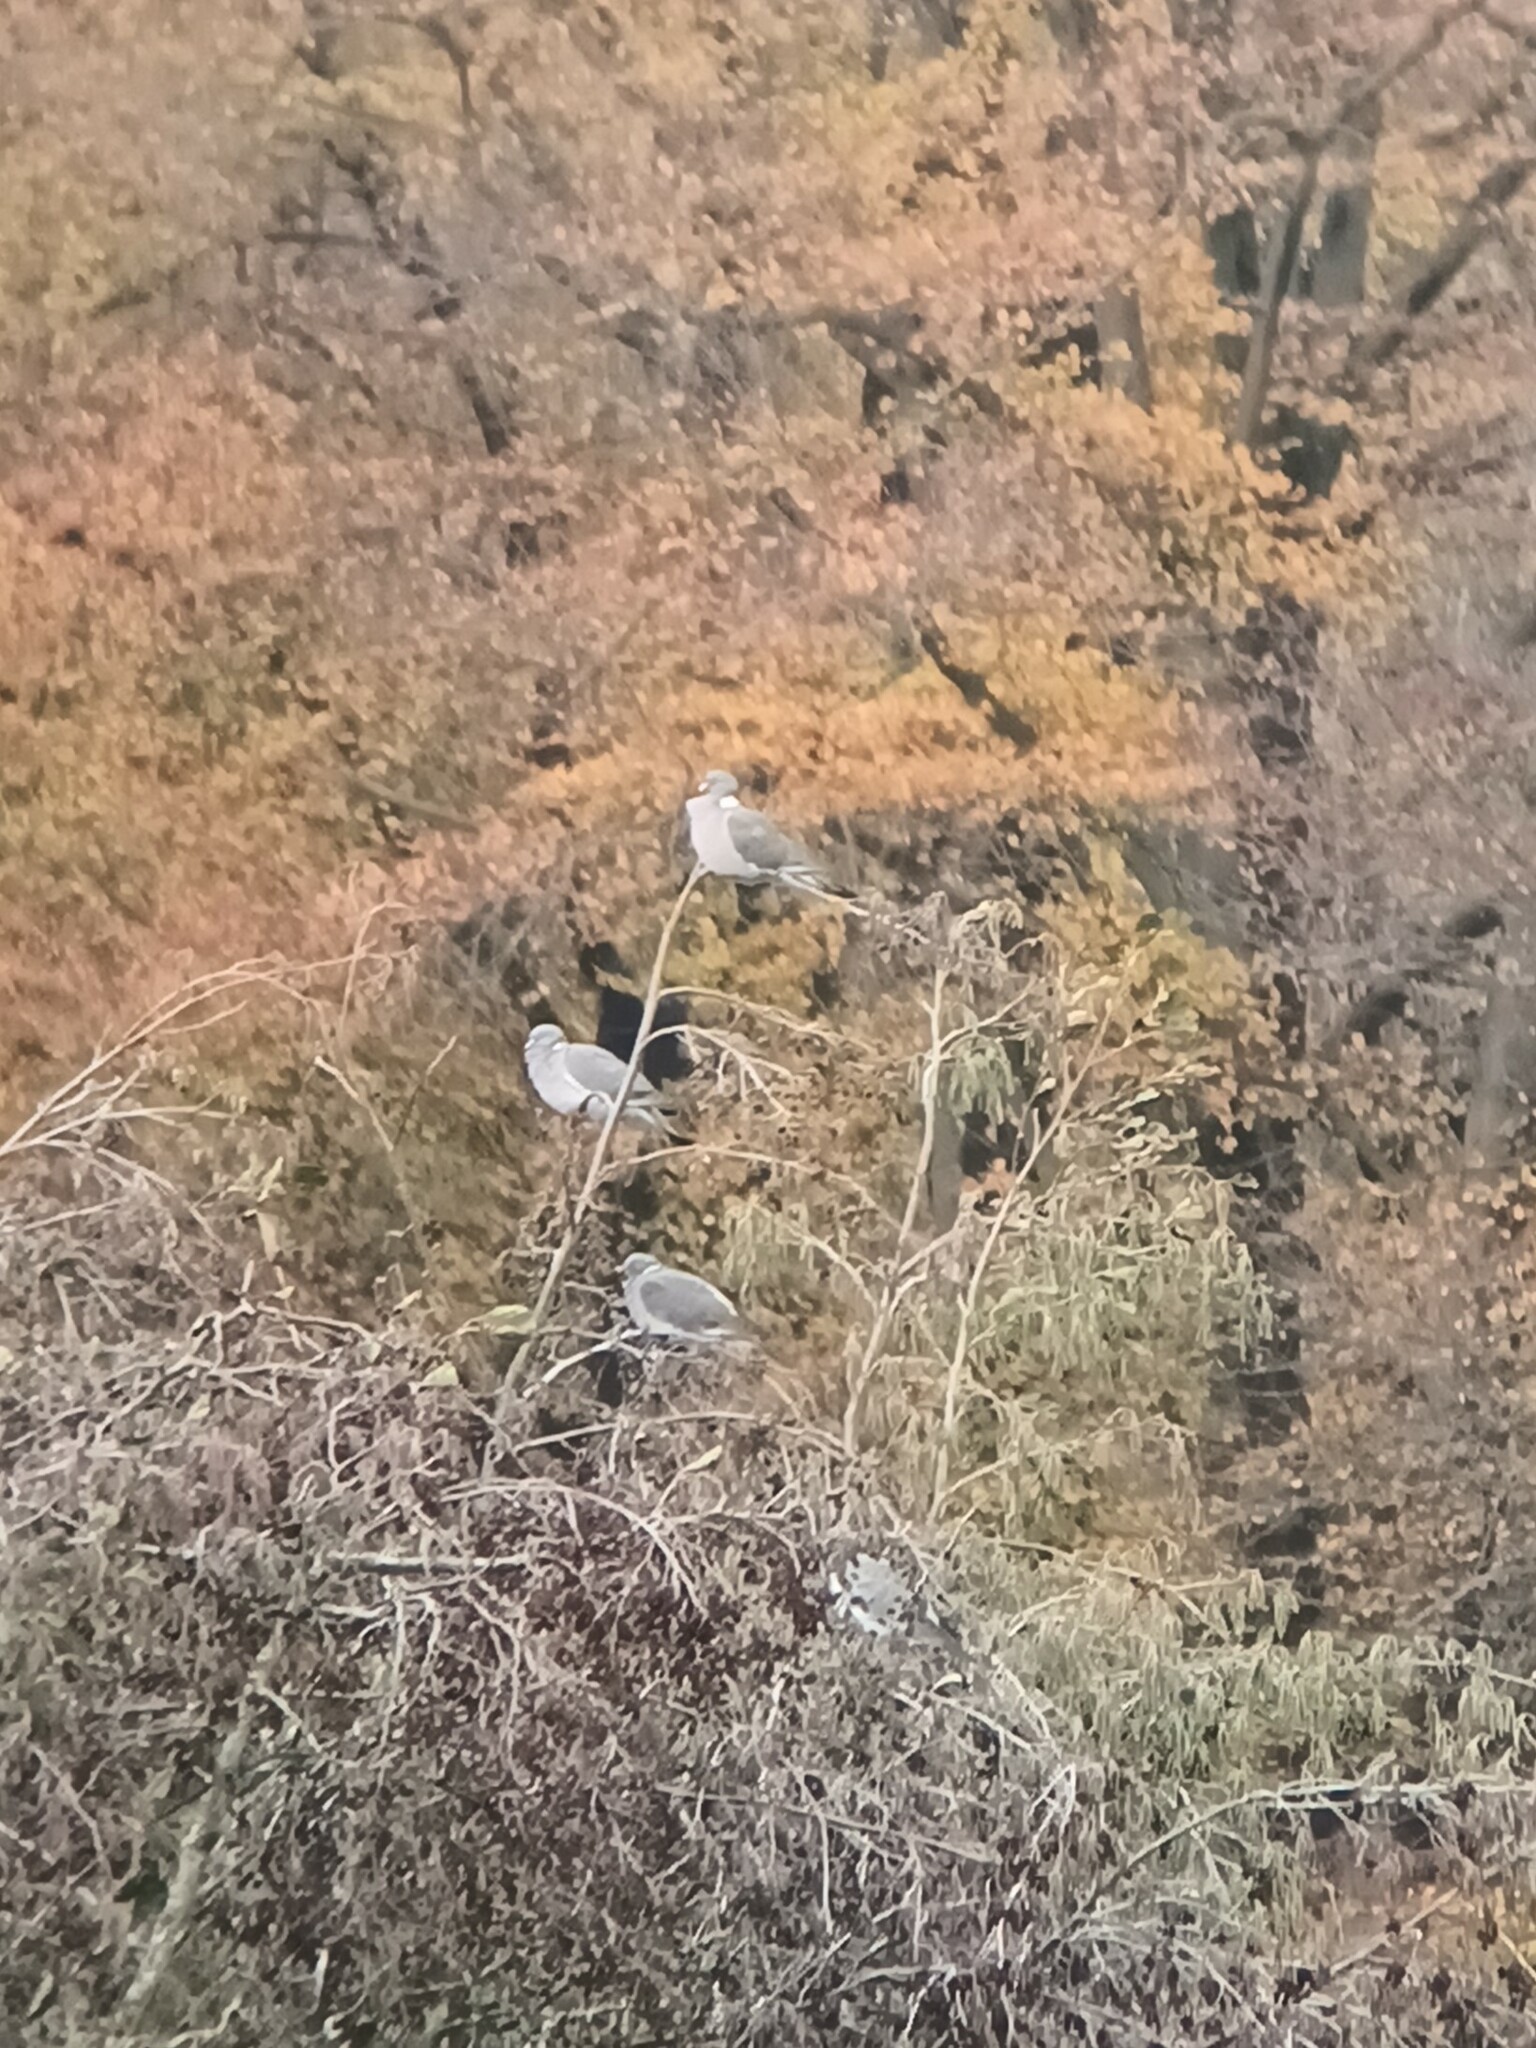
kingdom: Animalia
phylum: Chordata
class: Aves
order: Columbiformes
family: Columbidae
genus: Columba
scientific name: Columba palumbus
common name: Common wood pigeon
